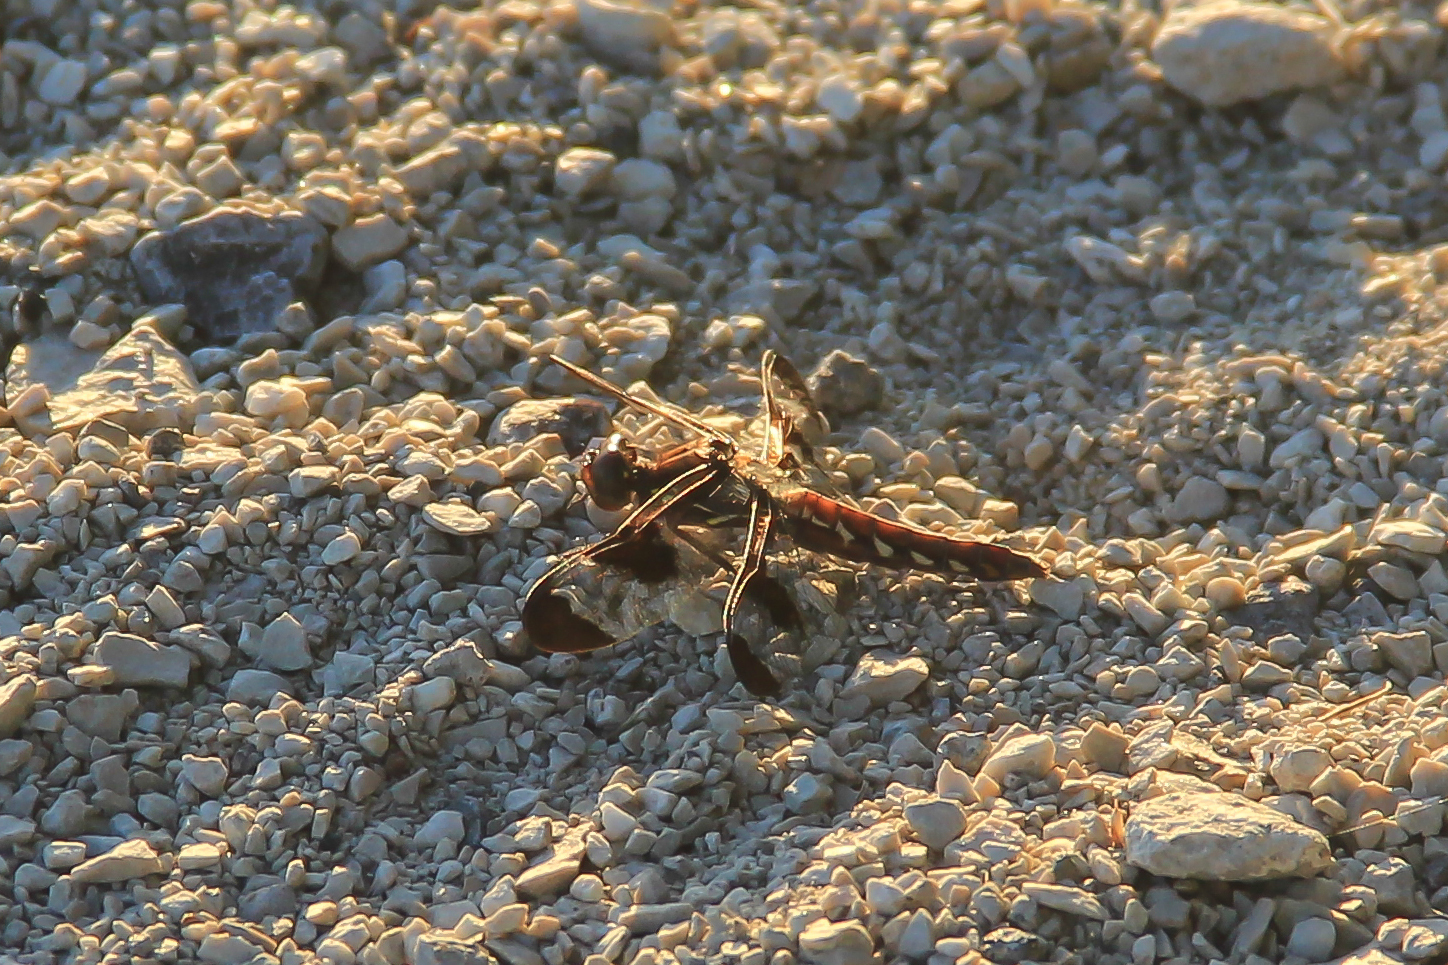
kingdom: Animalia
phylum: Arthropoda
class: Insecta
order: Odonata
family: Libellulidae
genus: Plathemis
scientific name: Plathemis lydia
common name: Common whitetail
